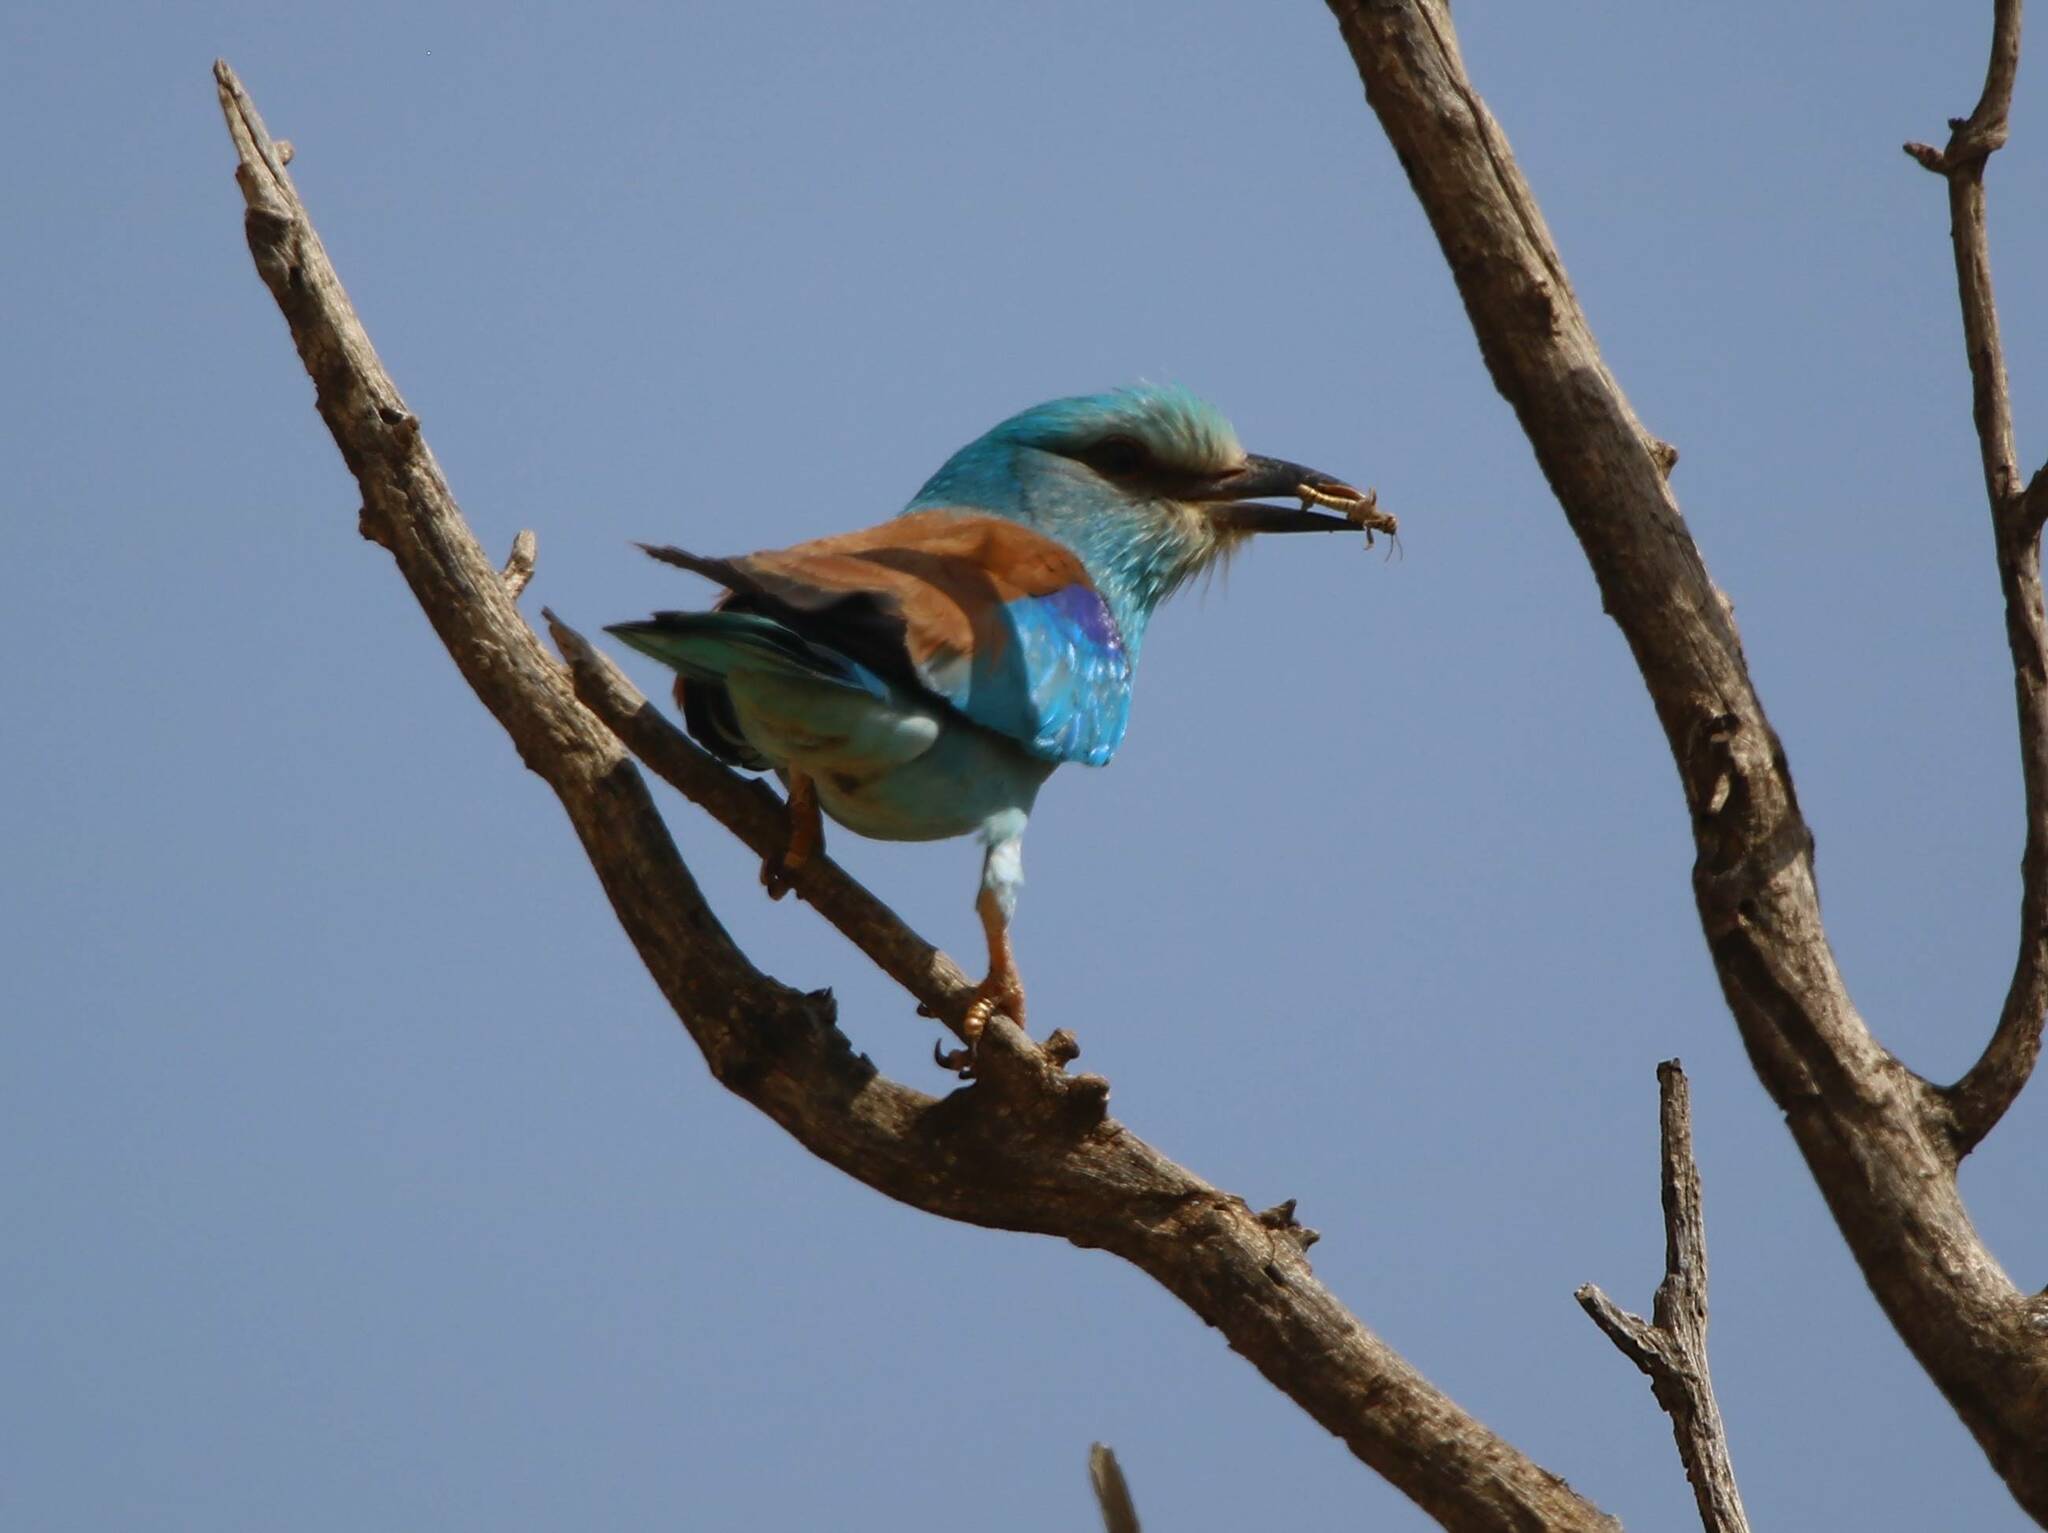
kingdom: Animalia
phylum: Chordata
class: Aves
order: Coraciiformes
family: Coraciidae
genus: Coracias
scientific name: Coracias garrulus
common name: European roller
